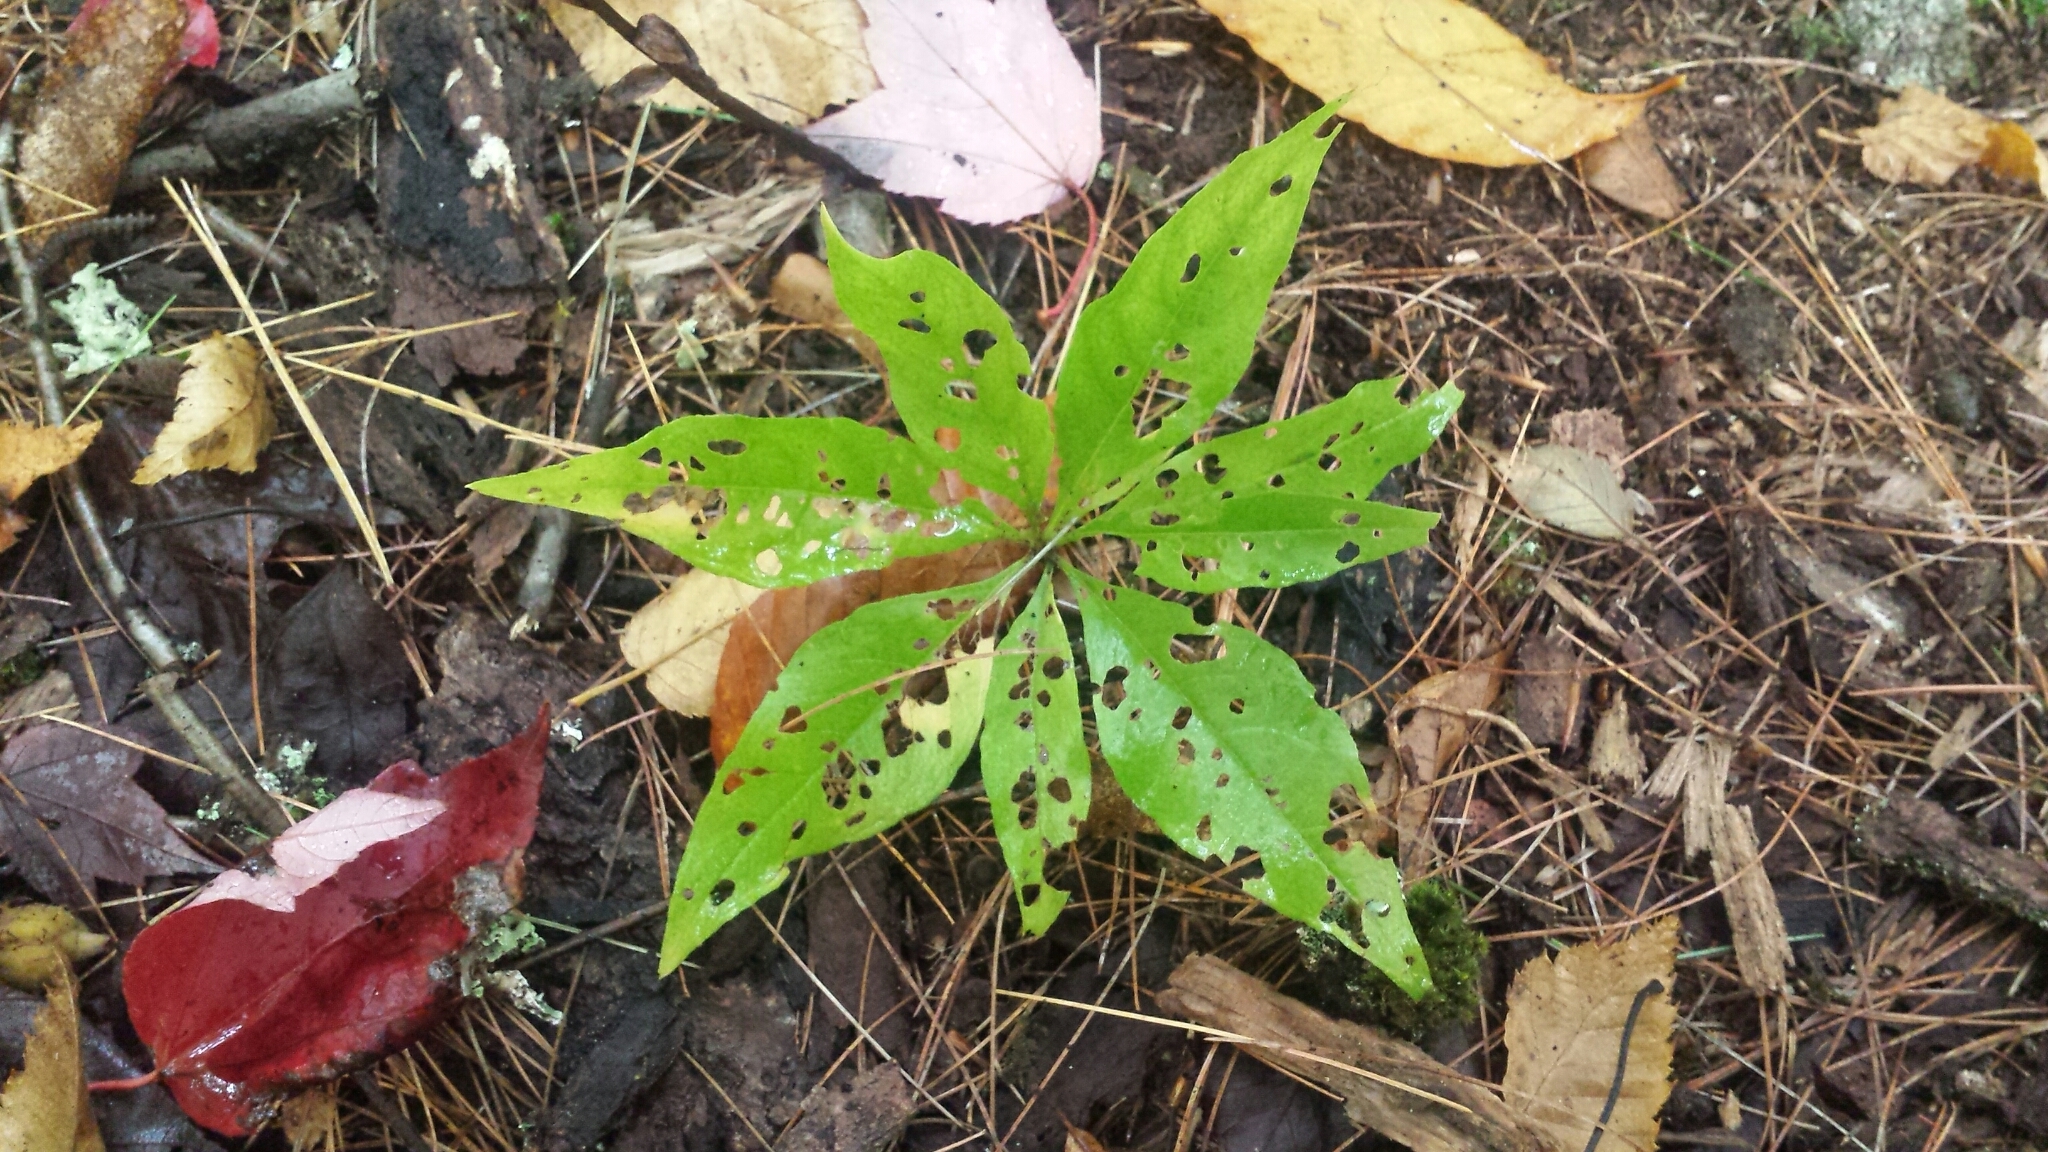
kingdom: Plantae
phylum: Tracheophyta
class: Magnoliopsida
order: Ericales
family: Primulaceae
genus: Lysimachia
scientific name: Lysimachia borealis
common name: American starflower
